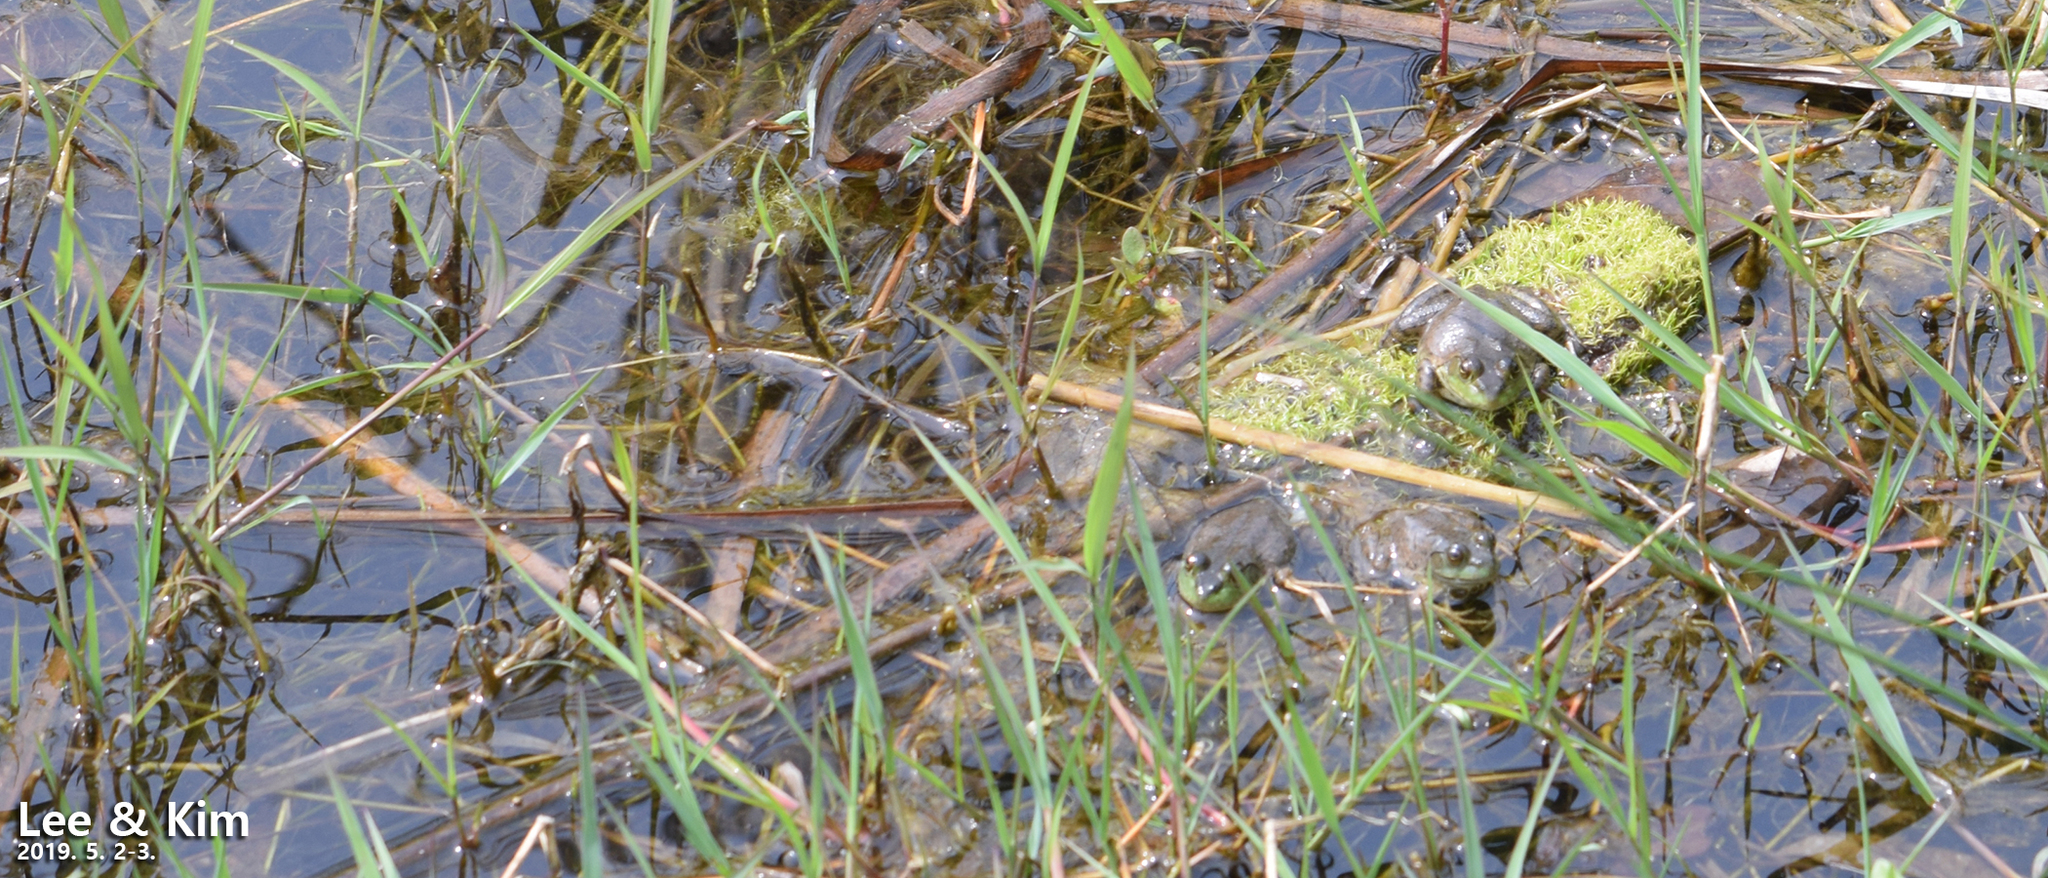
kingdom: Animalia
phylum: Chordata
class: Amphibia
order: Anura
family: Ranidae
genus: Lithobates
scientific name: Lithobates catesbeianus
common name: American bullfrog
